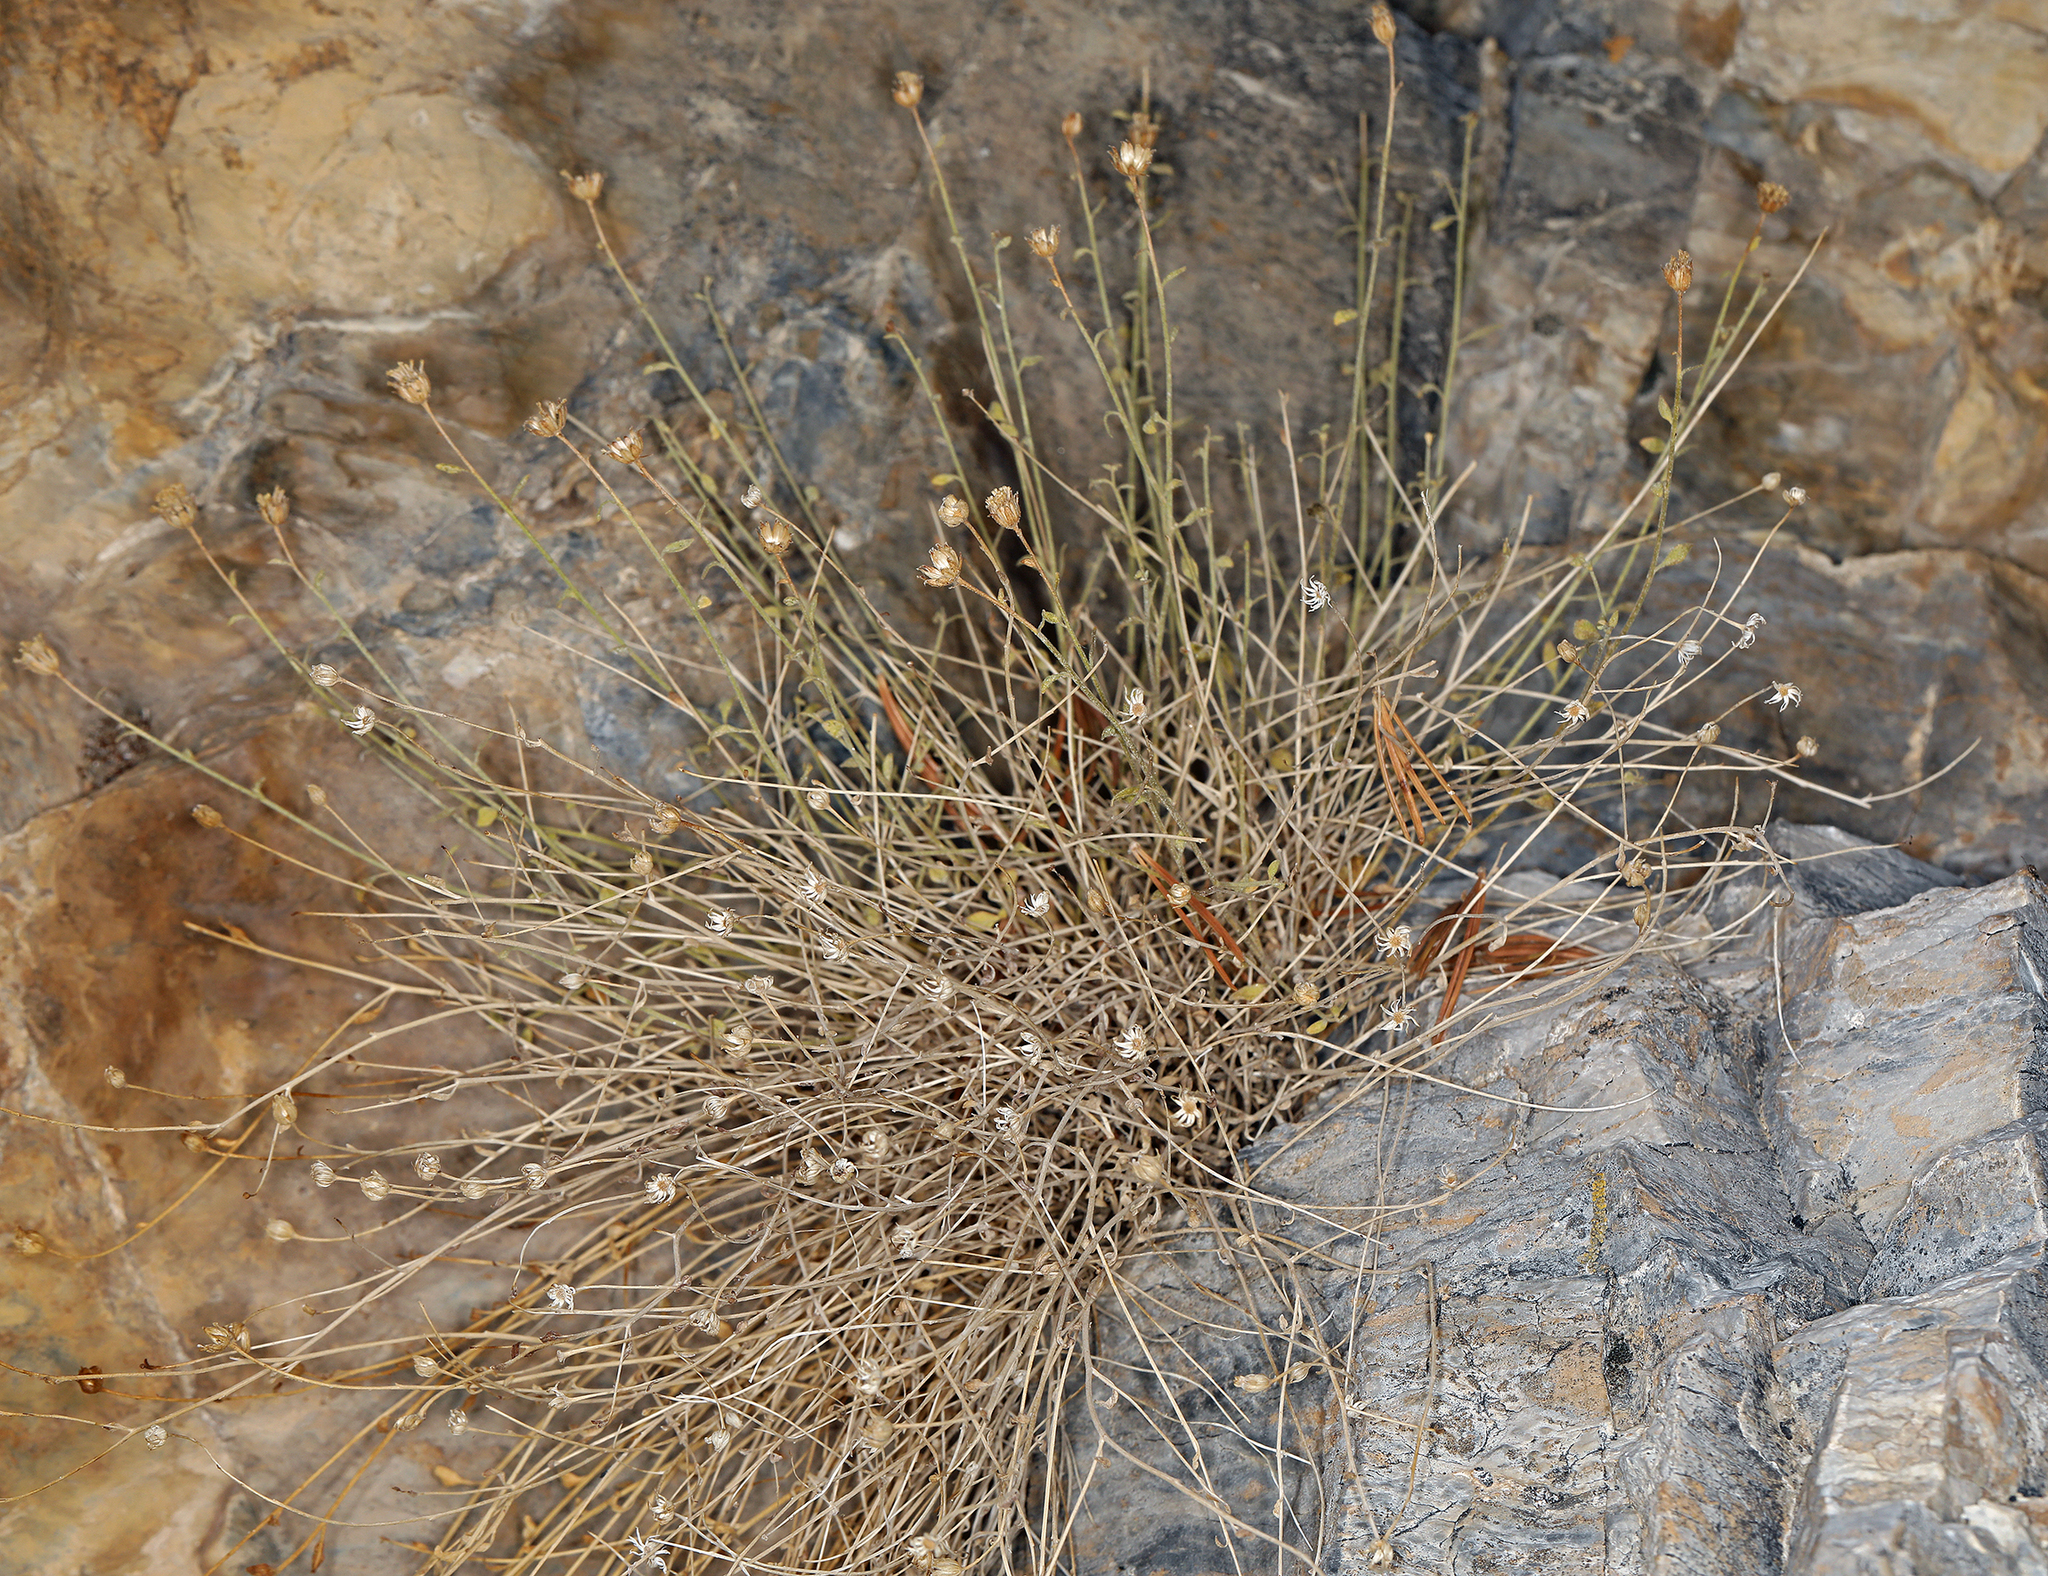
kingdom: Plantae
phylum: Tracheophyta
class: Magnoliopsida
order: Asterales
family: Asteraceae
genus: Laphamia
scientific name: Laphamia megalocephala
